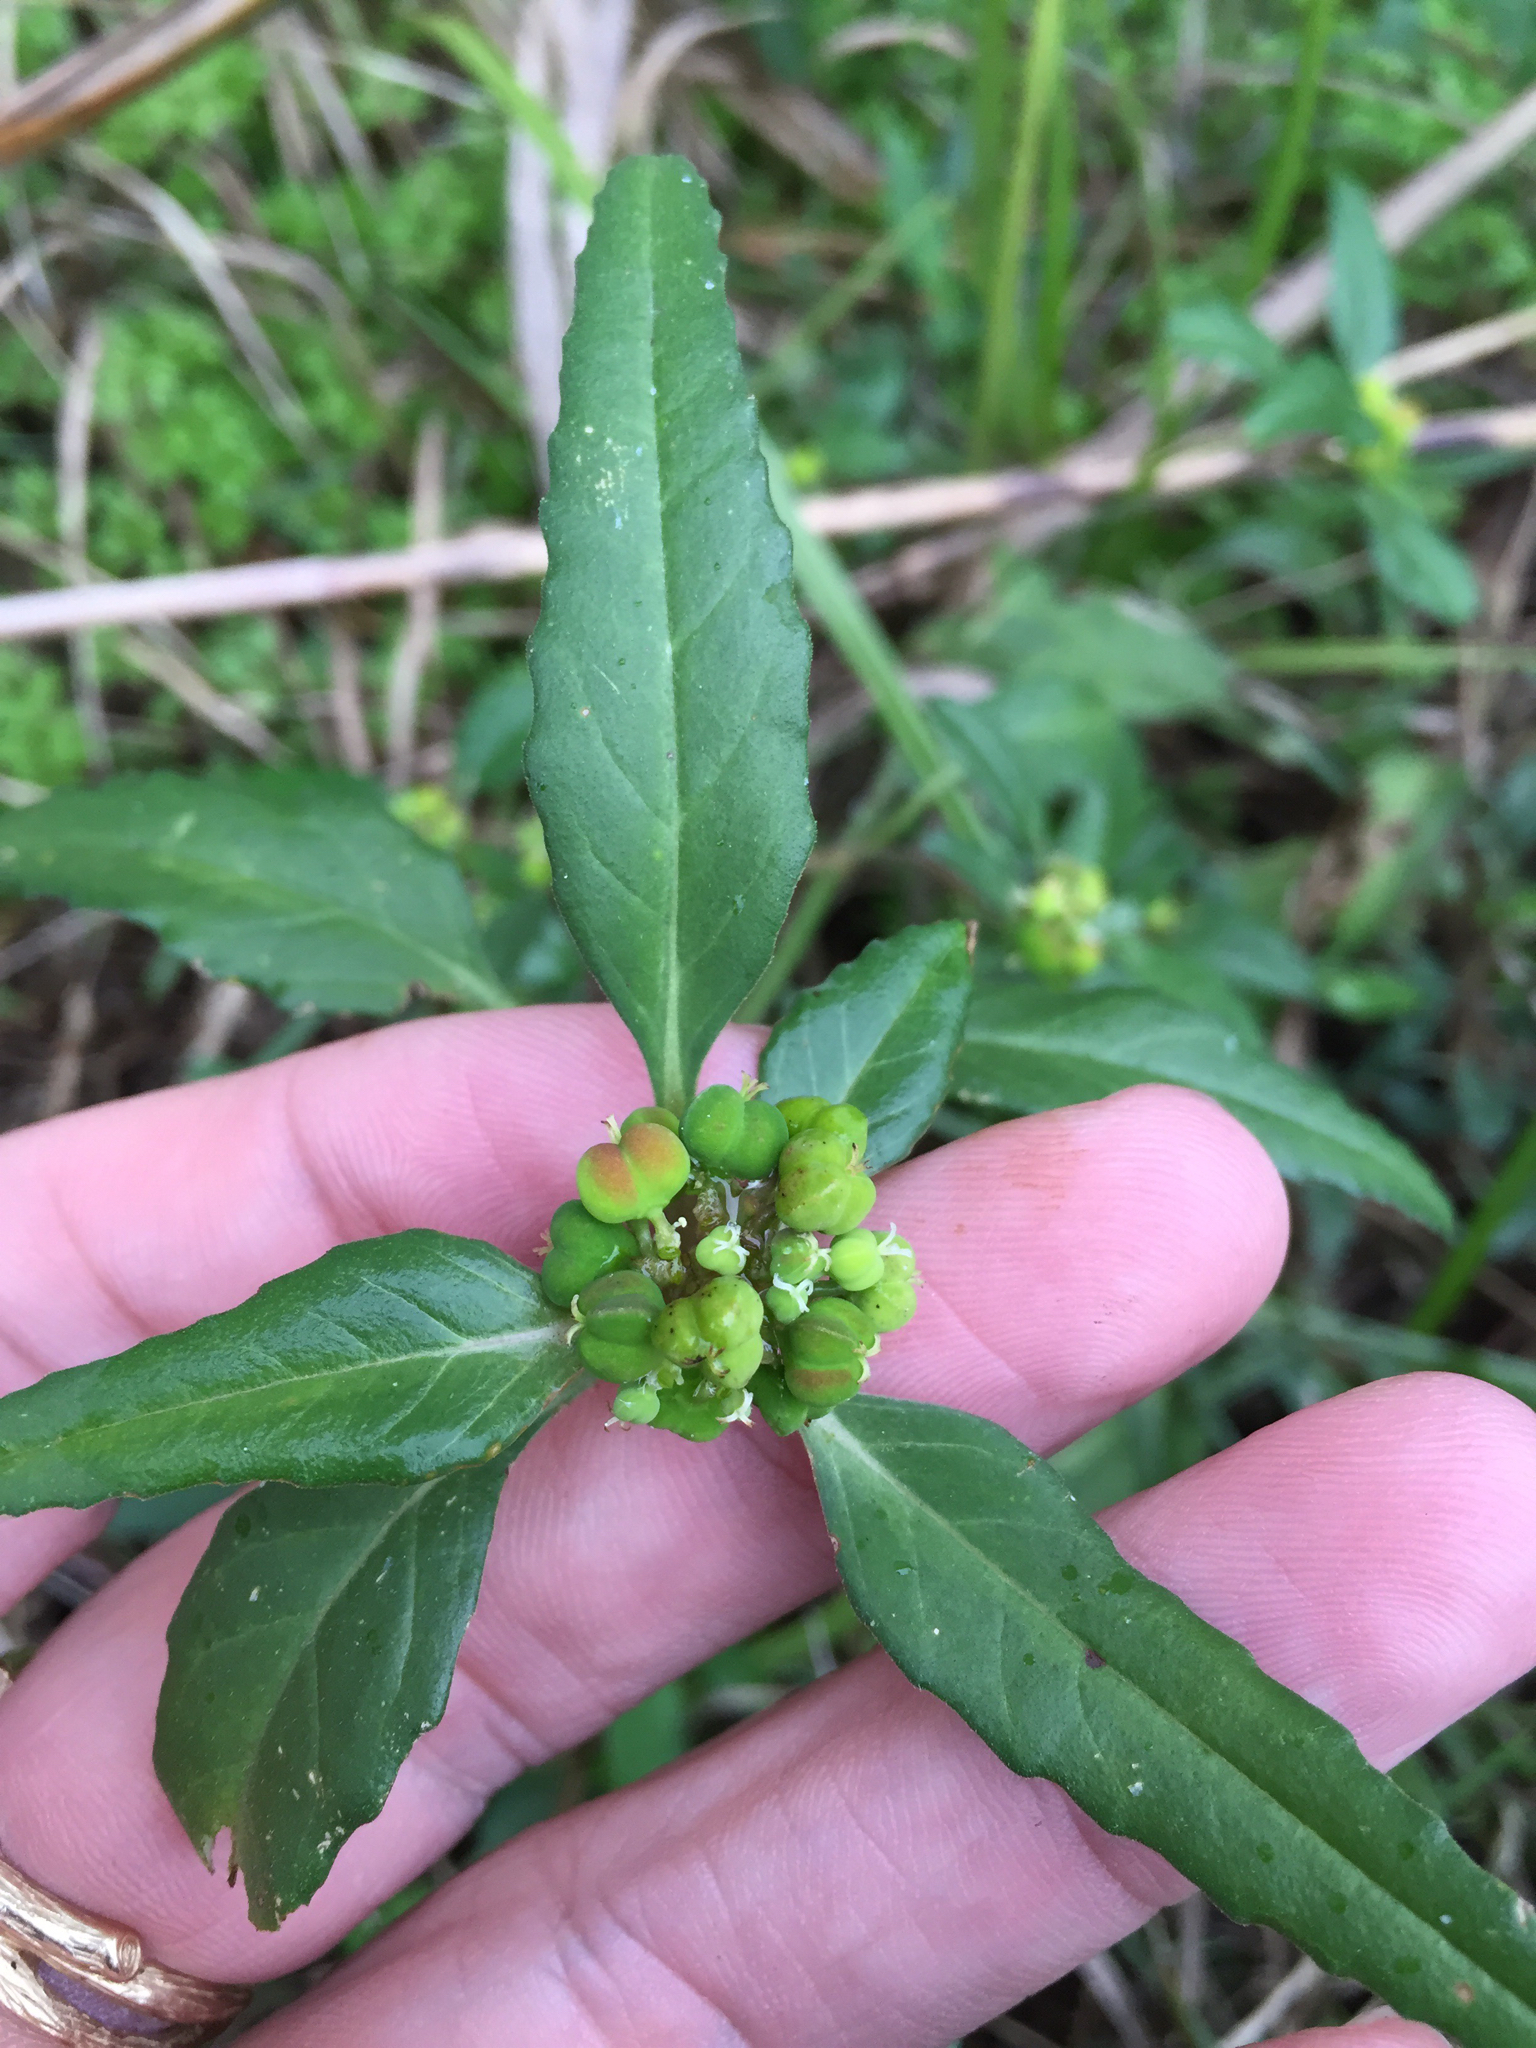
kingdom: Plantae
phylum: Tracheophyta
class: Magnoliopsida
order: Malpighiales
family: Euphorbiaceae
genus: Euphorbia
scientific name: Euphorbia dentata
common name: Dentate spurge
